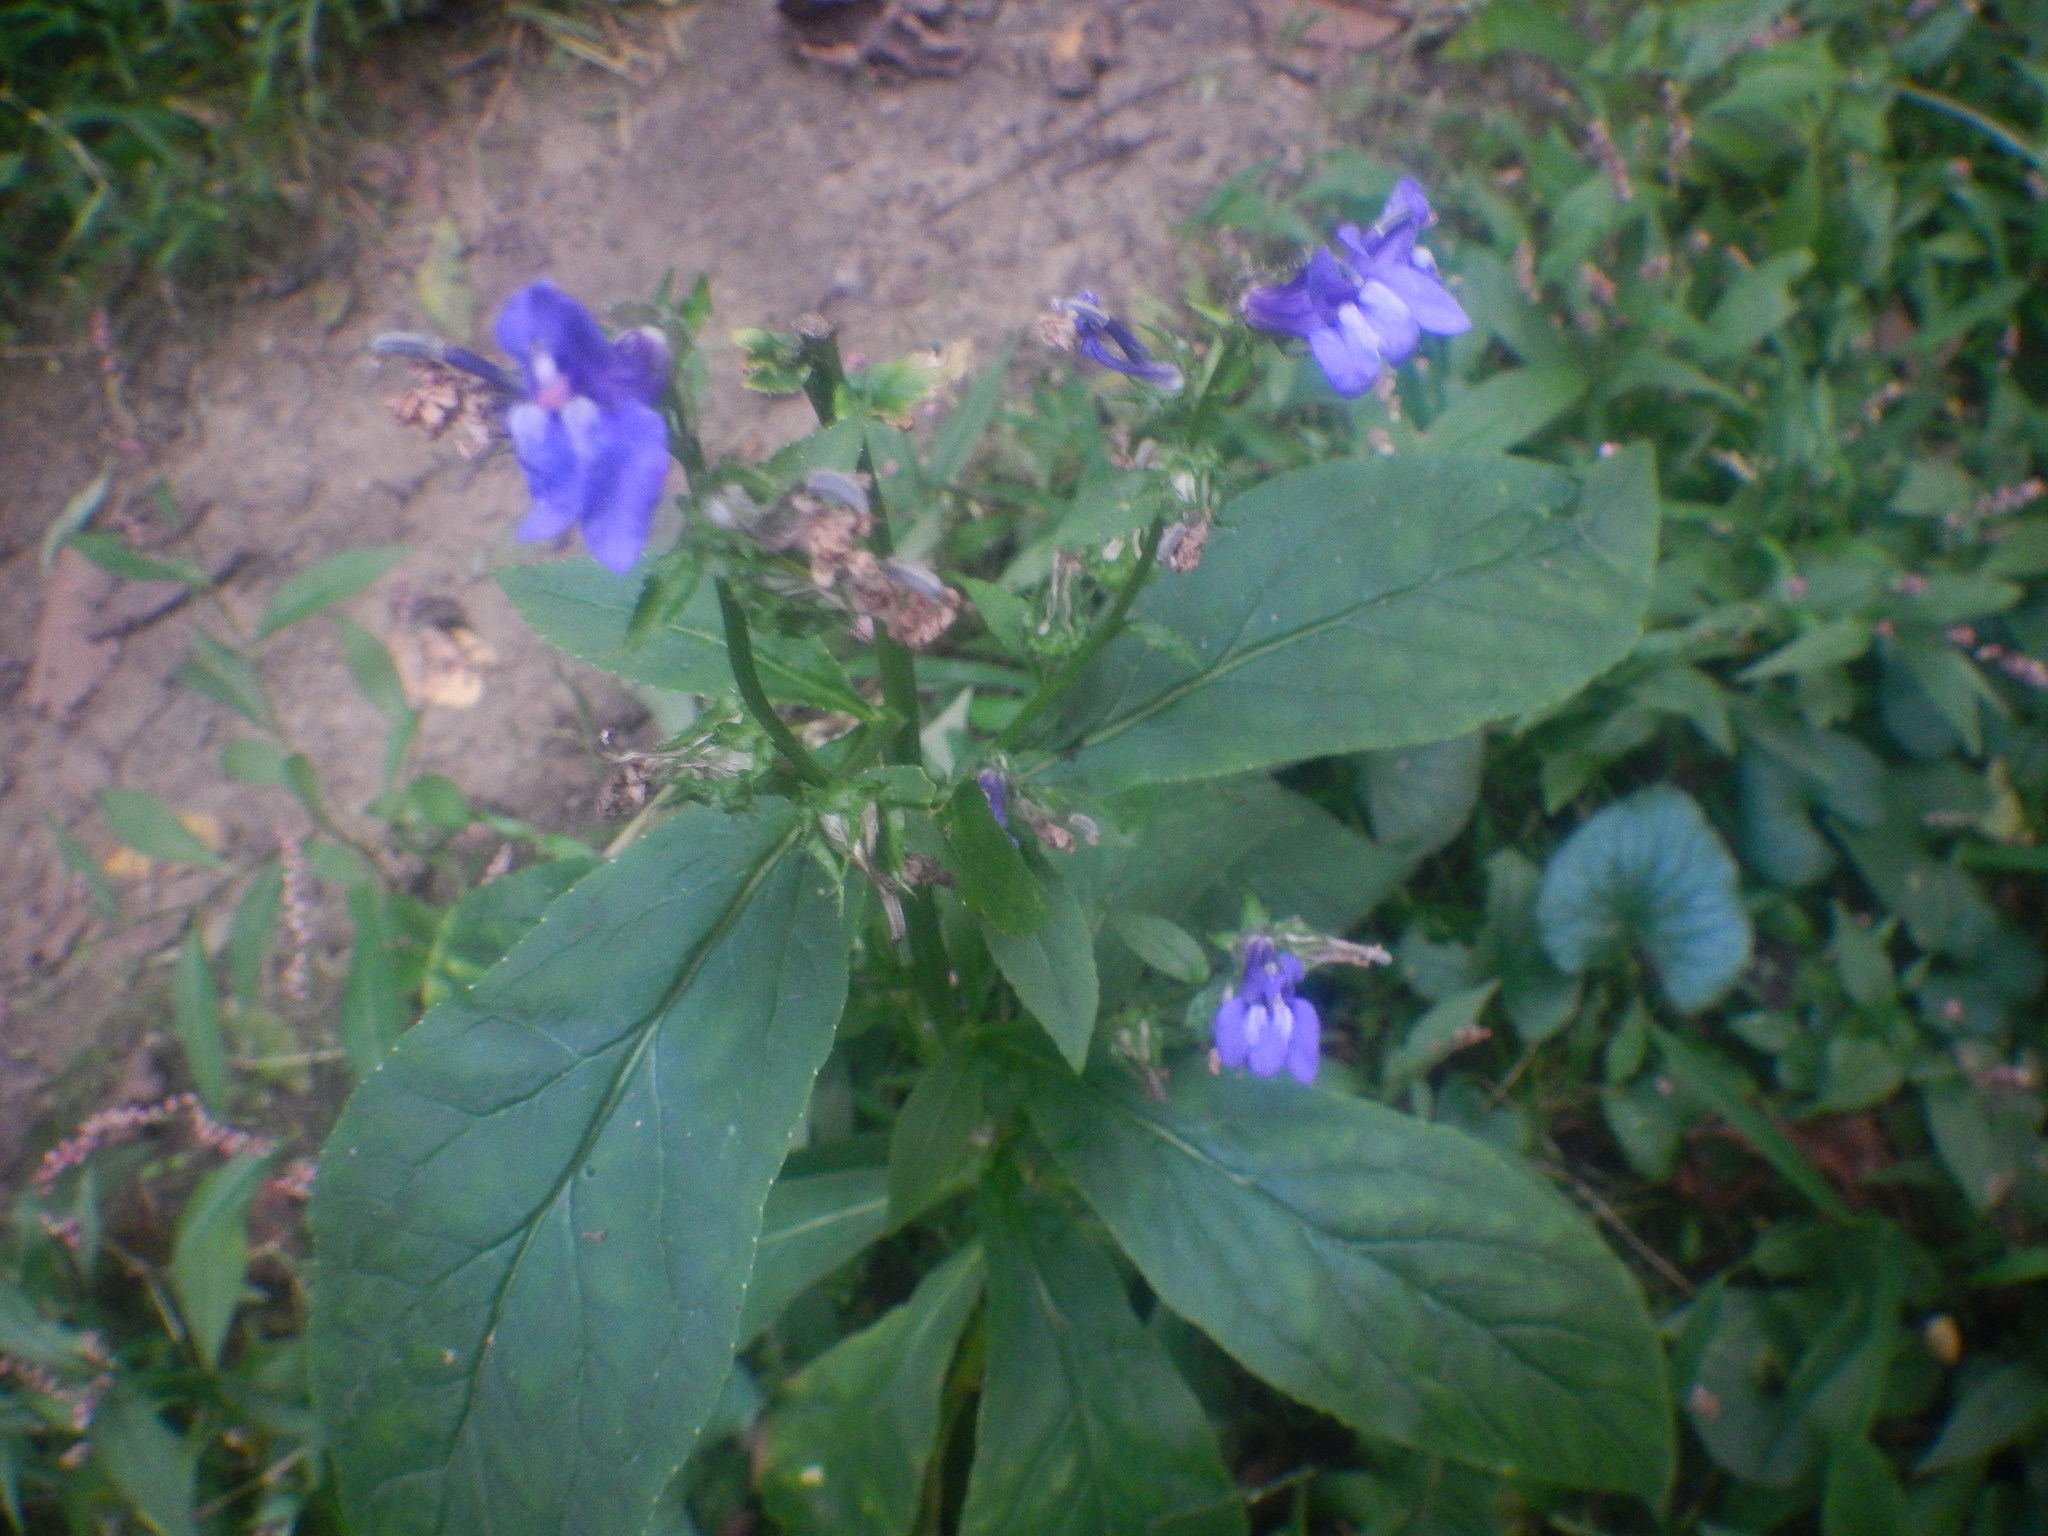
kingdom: Plantae
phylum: Tracheophyta
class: Magnoliopsida
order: Asterales
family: Campanulaceae
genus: Lobelia
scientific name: Lobelia siphilitica
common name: Great lobelia
